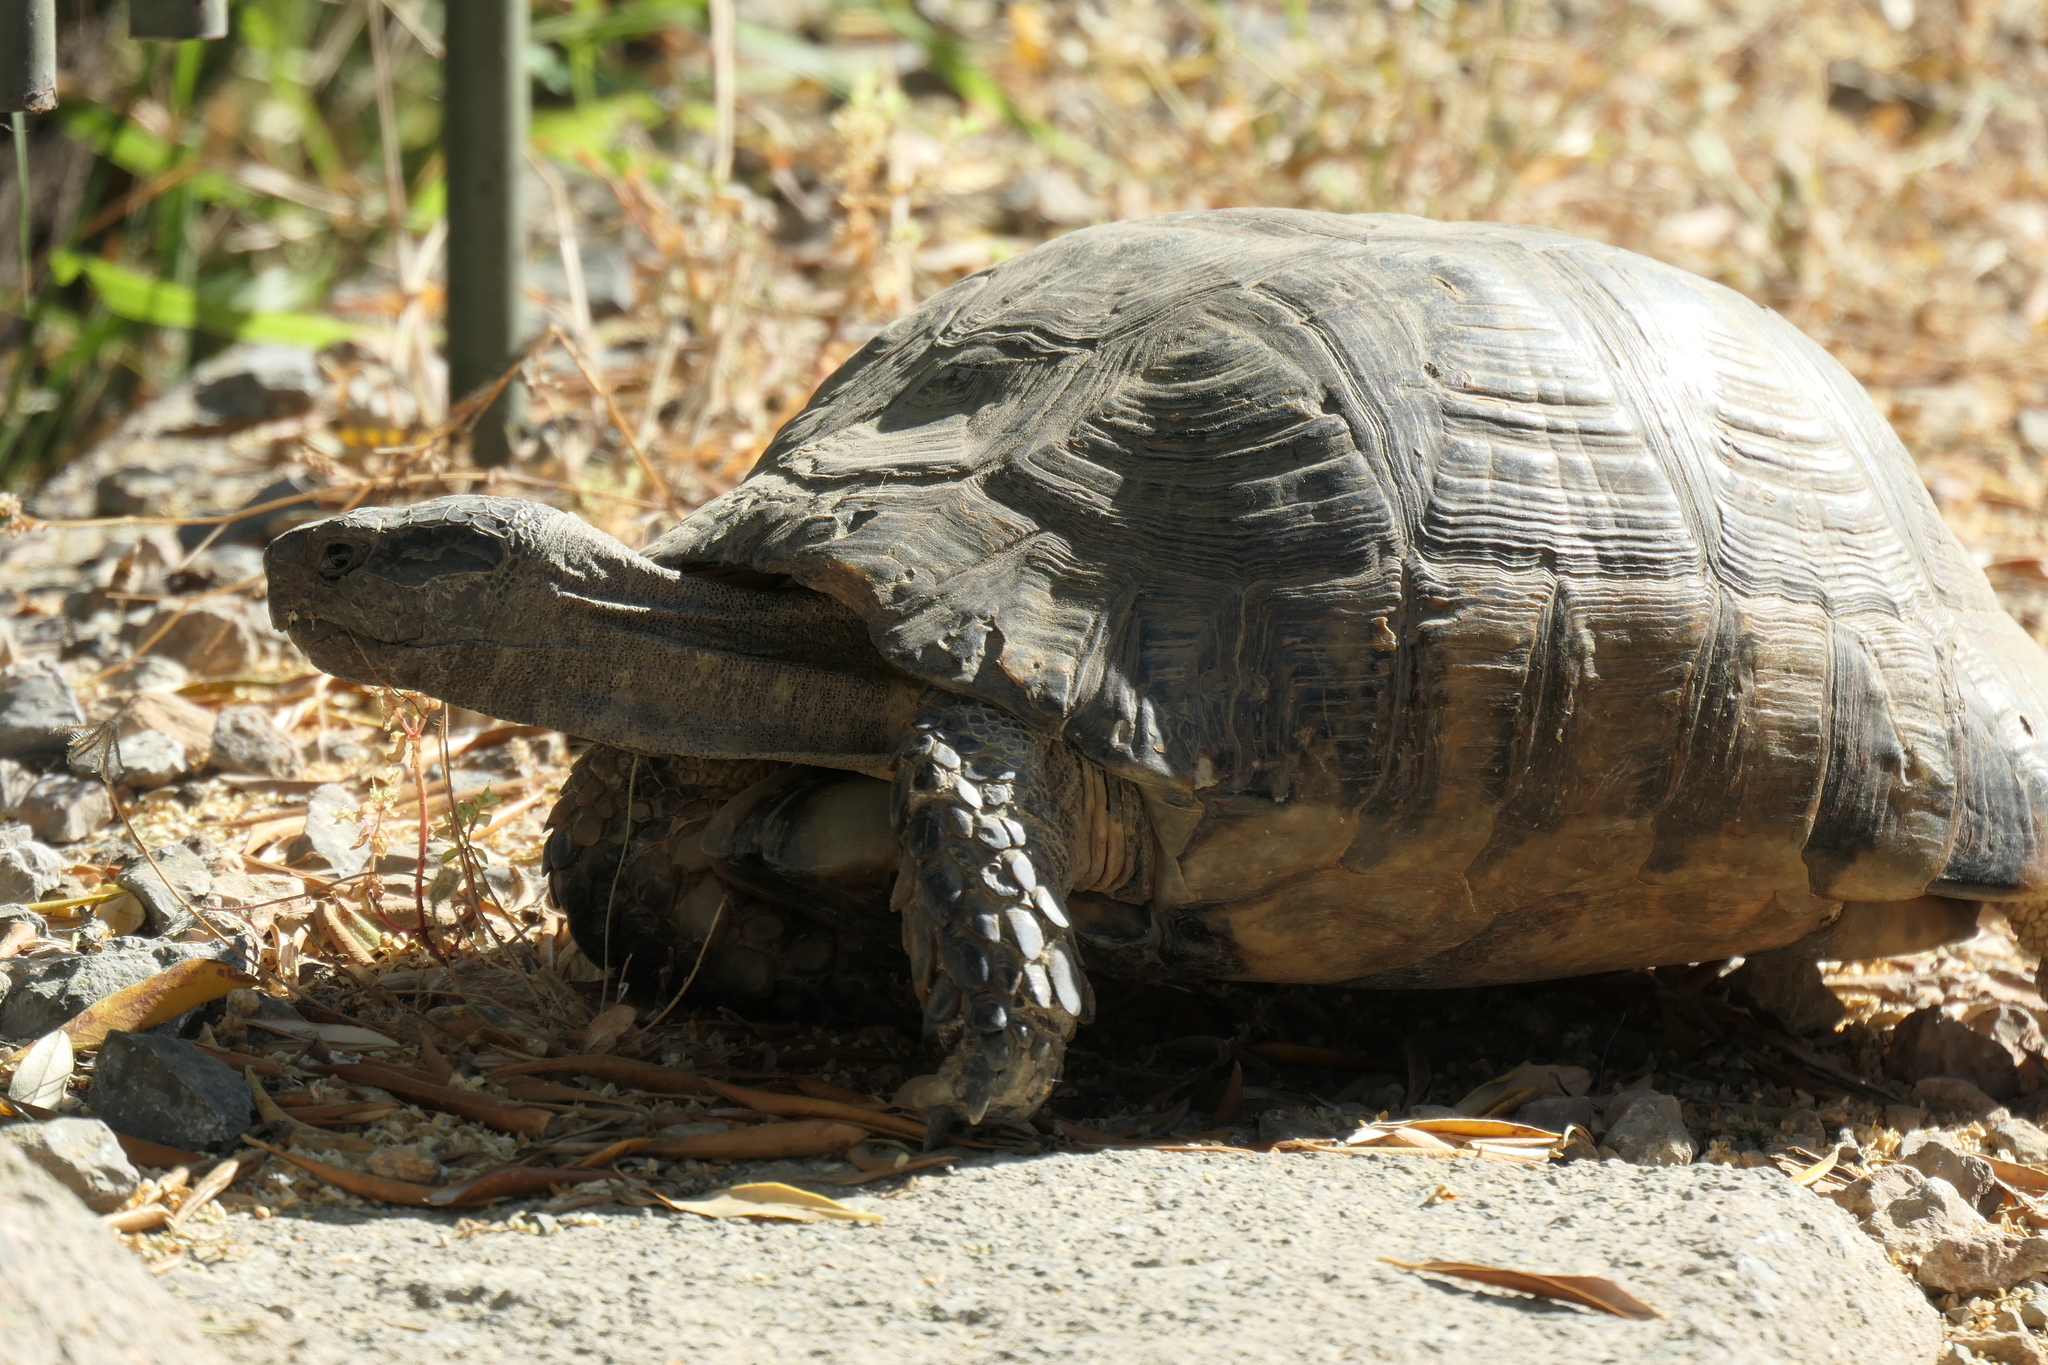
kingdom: Animalia
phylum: Chordata
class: Testudines
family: Testudinidae
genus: Testudo
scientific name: Testudo marginata
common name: Marginated tortoise
